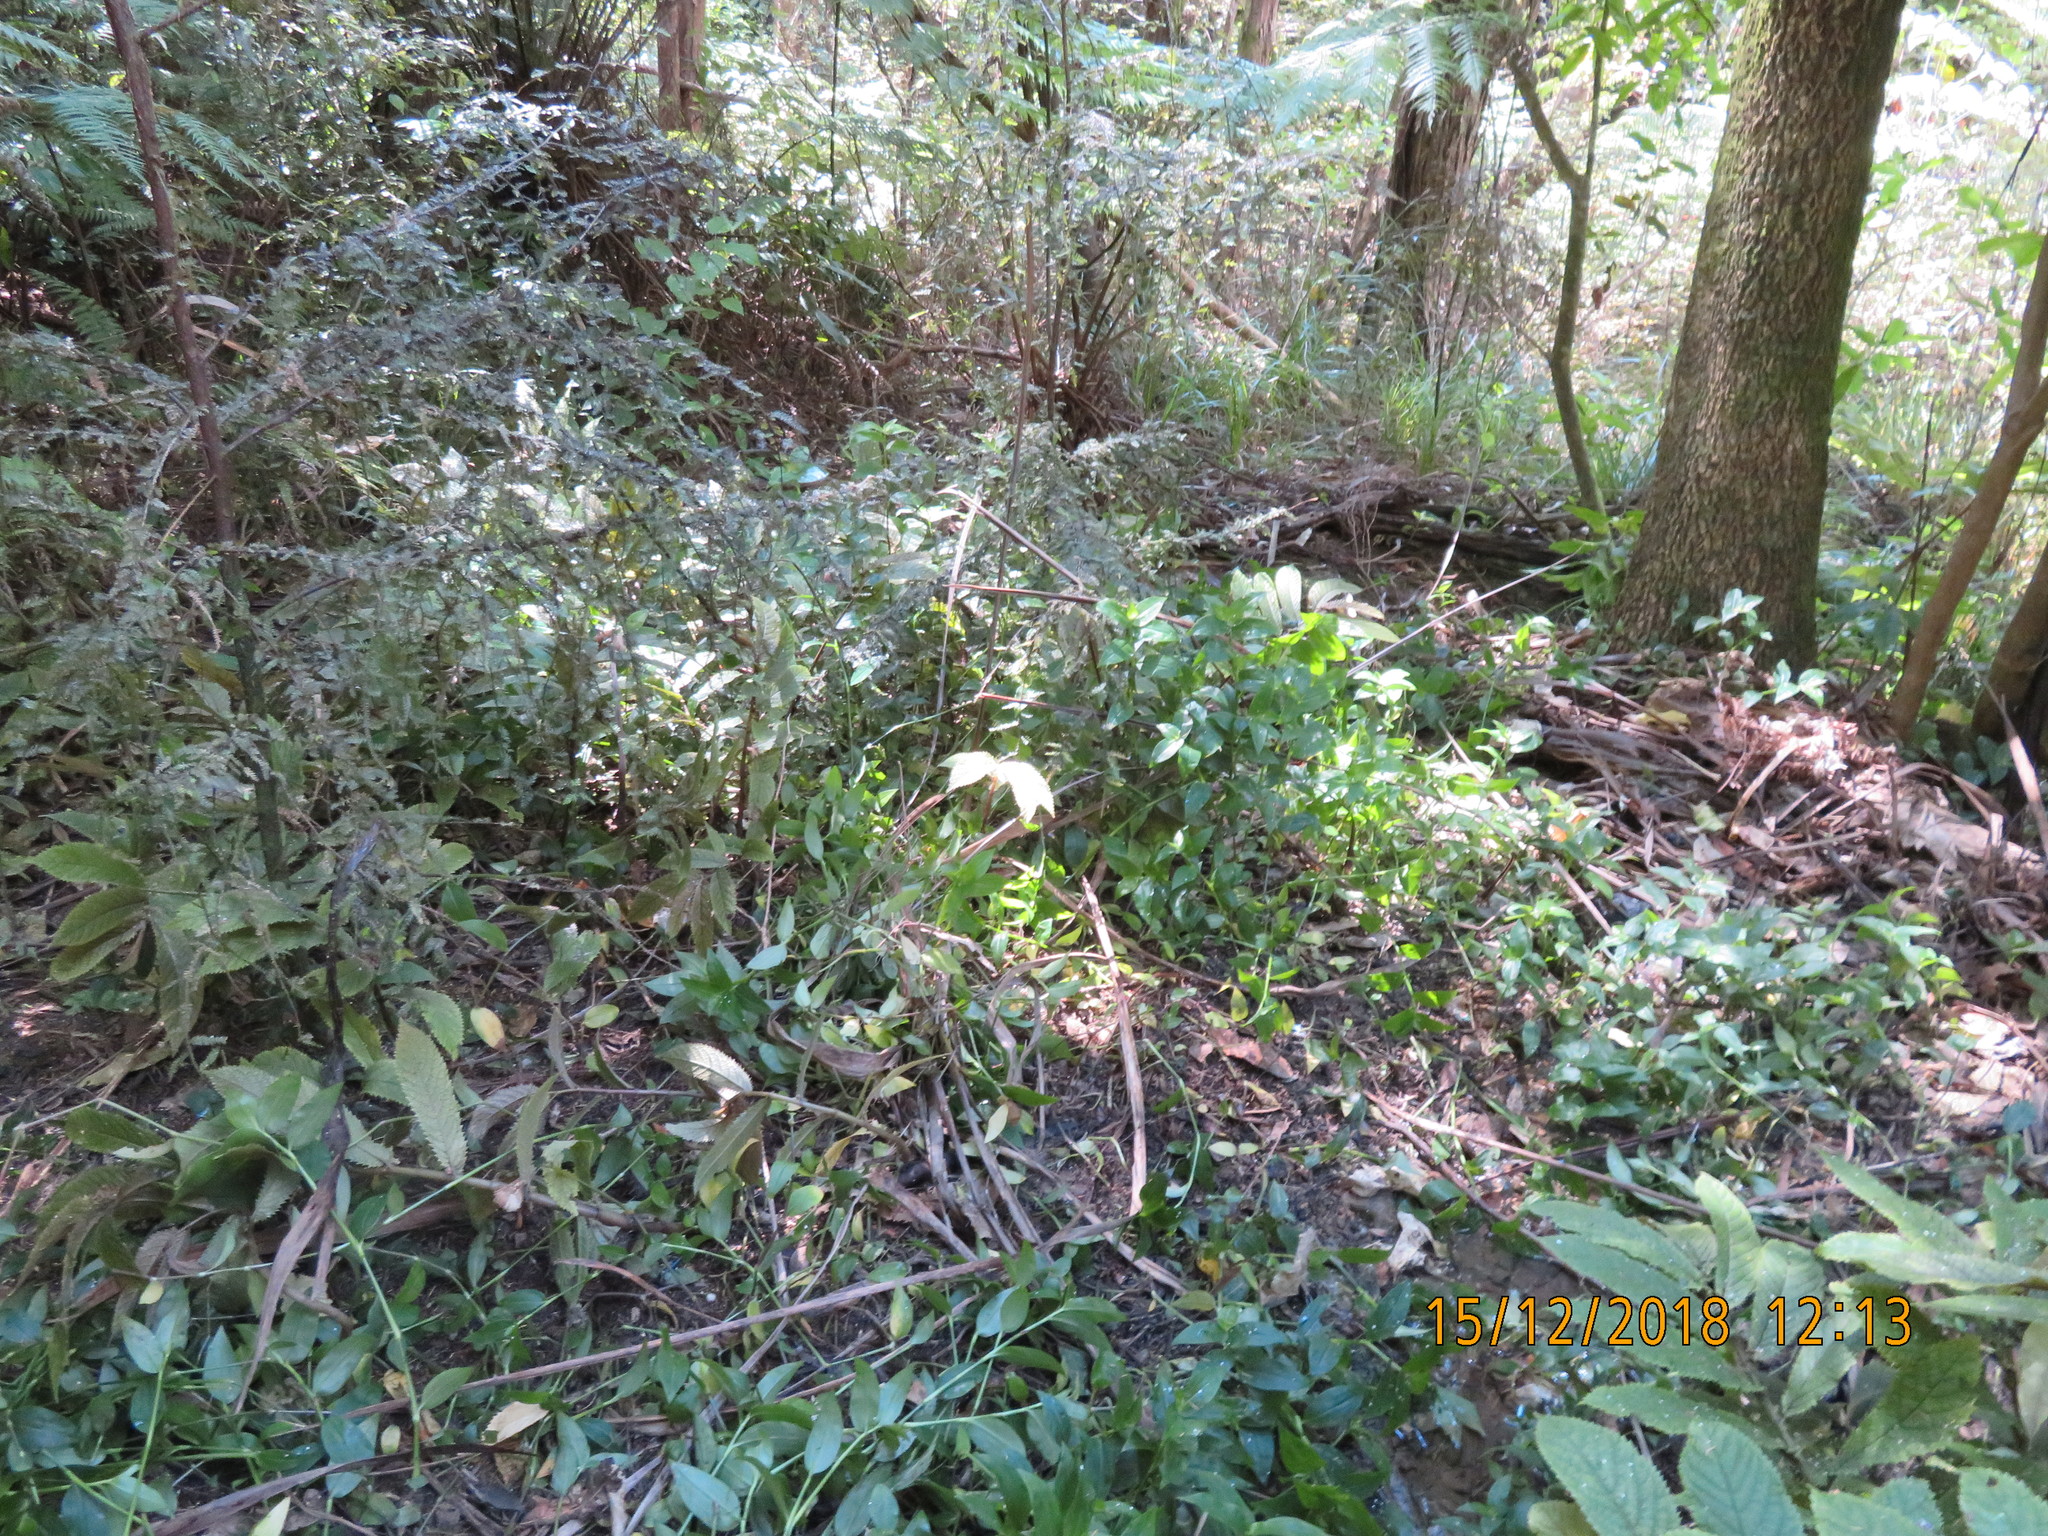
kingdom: Plantae
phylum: Tracheophyta
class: Liliopsida
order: Commelinales
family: Commelinaceae
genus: Tradescantia
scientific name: Tradescantia fluminensis
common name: Wandering-jew
